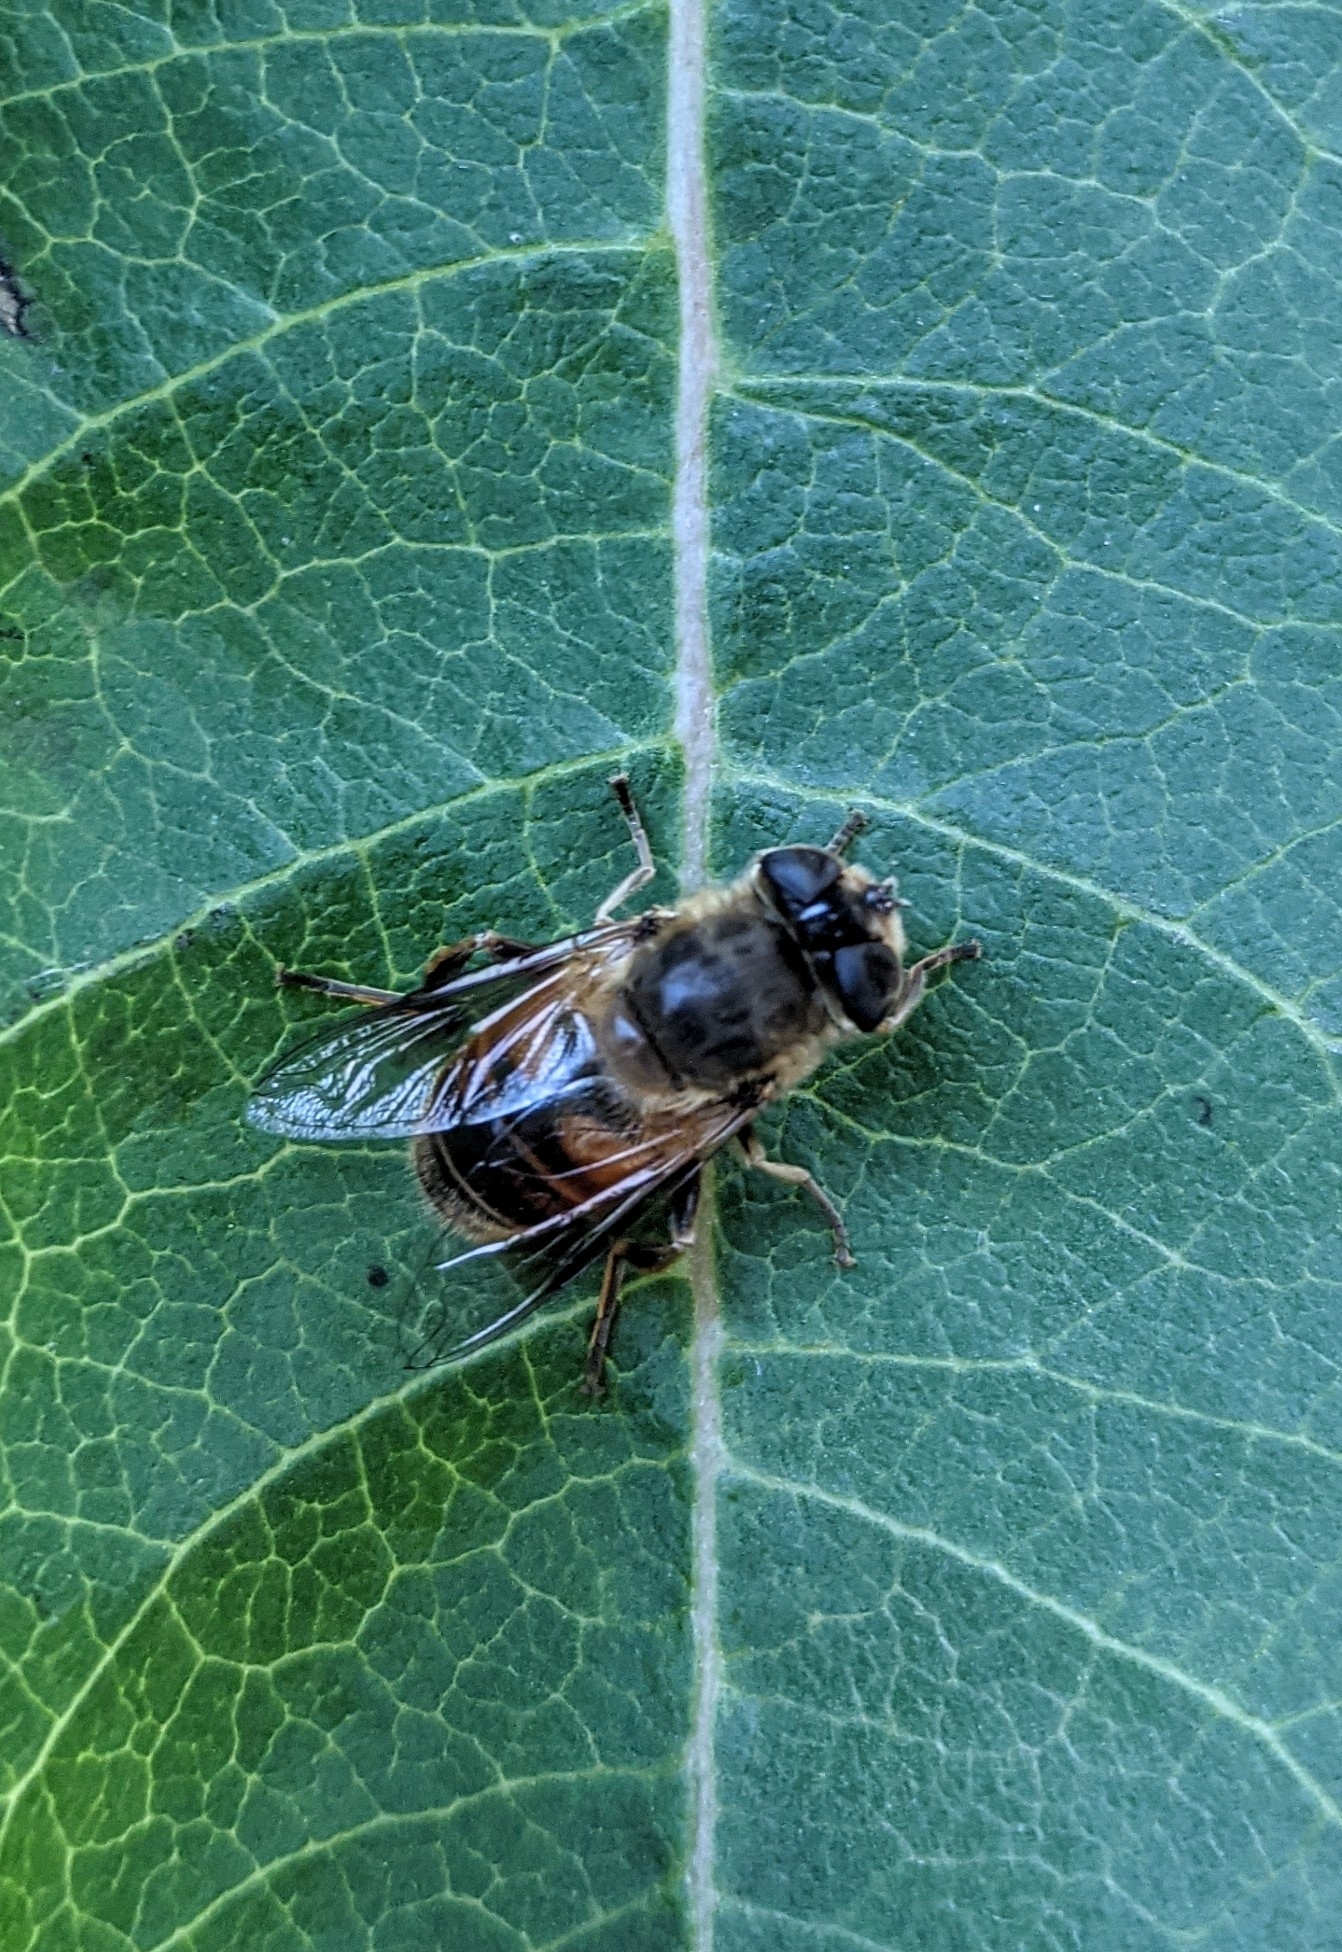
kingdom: Animalia
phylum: Arthropoda
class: Insecta
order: Diptera
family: Syrphidae
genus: Eristalis
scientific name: Eristalis tenax
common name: Drone fly
